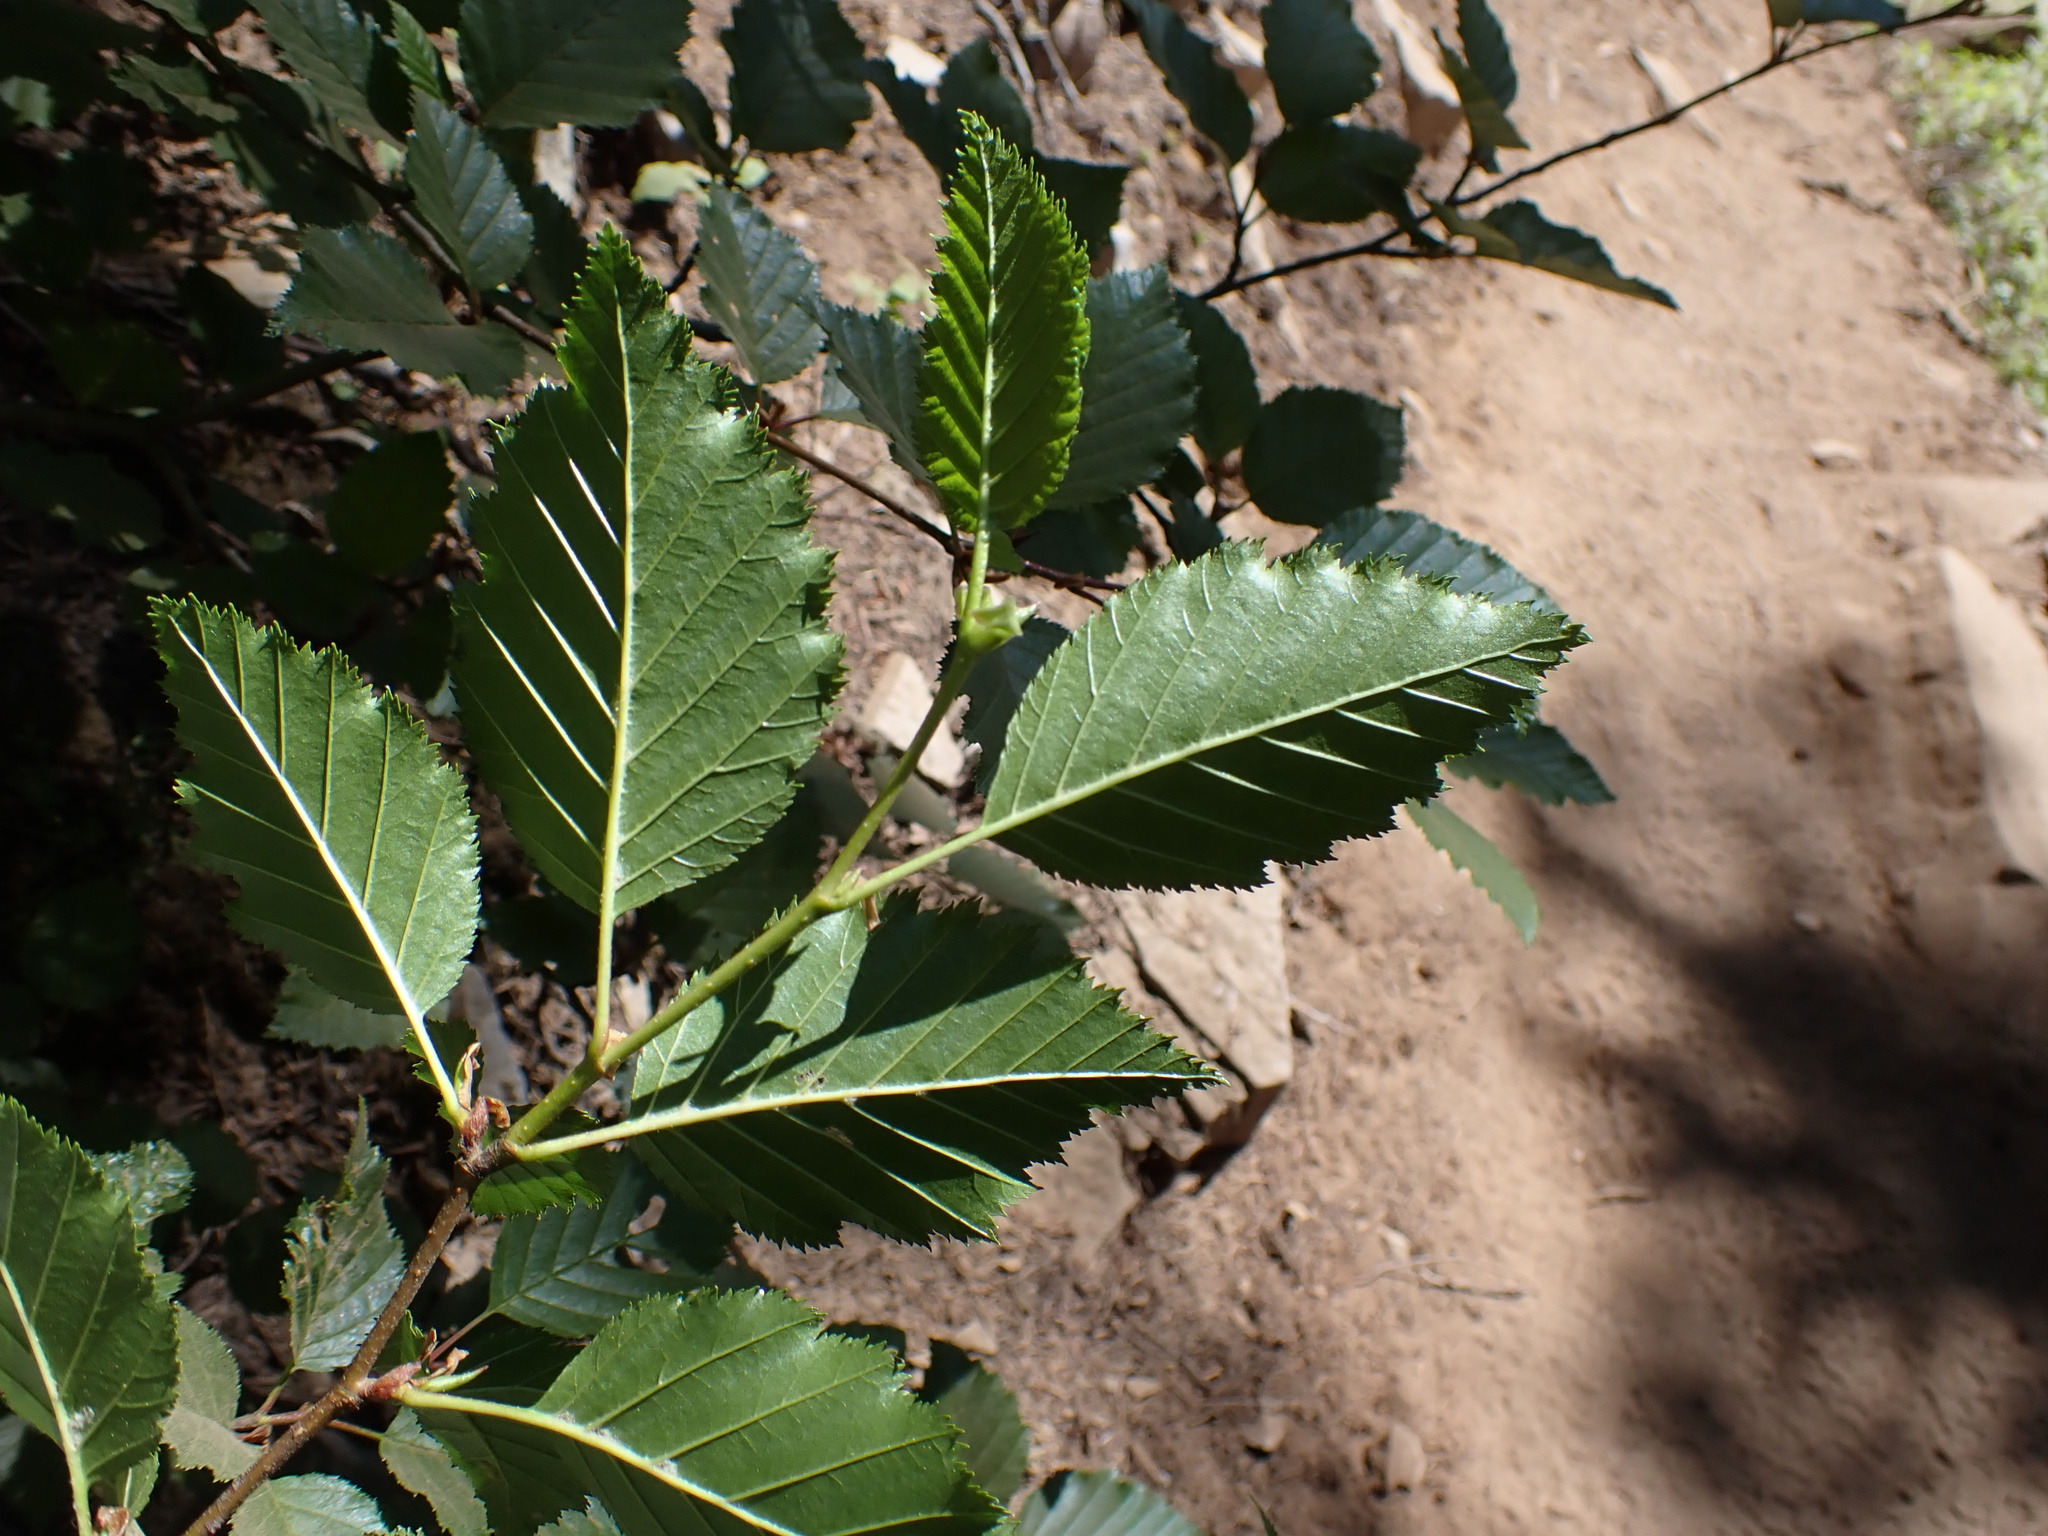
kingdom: Plantae
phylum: Tracheophyta
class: Magnoliopsida
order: Fagales
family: Betulaceae
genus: Alnus
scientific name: Alnus alnobetula
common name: Green alder
